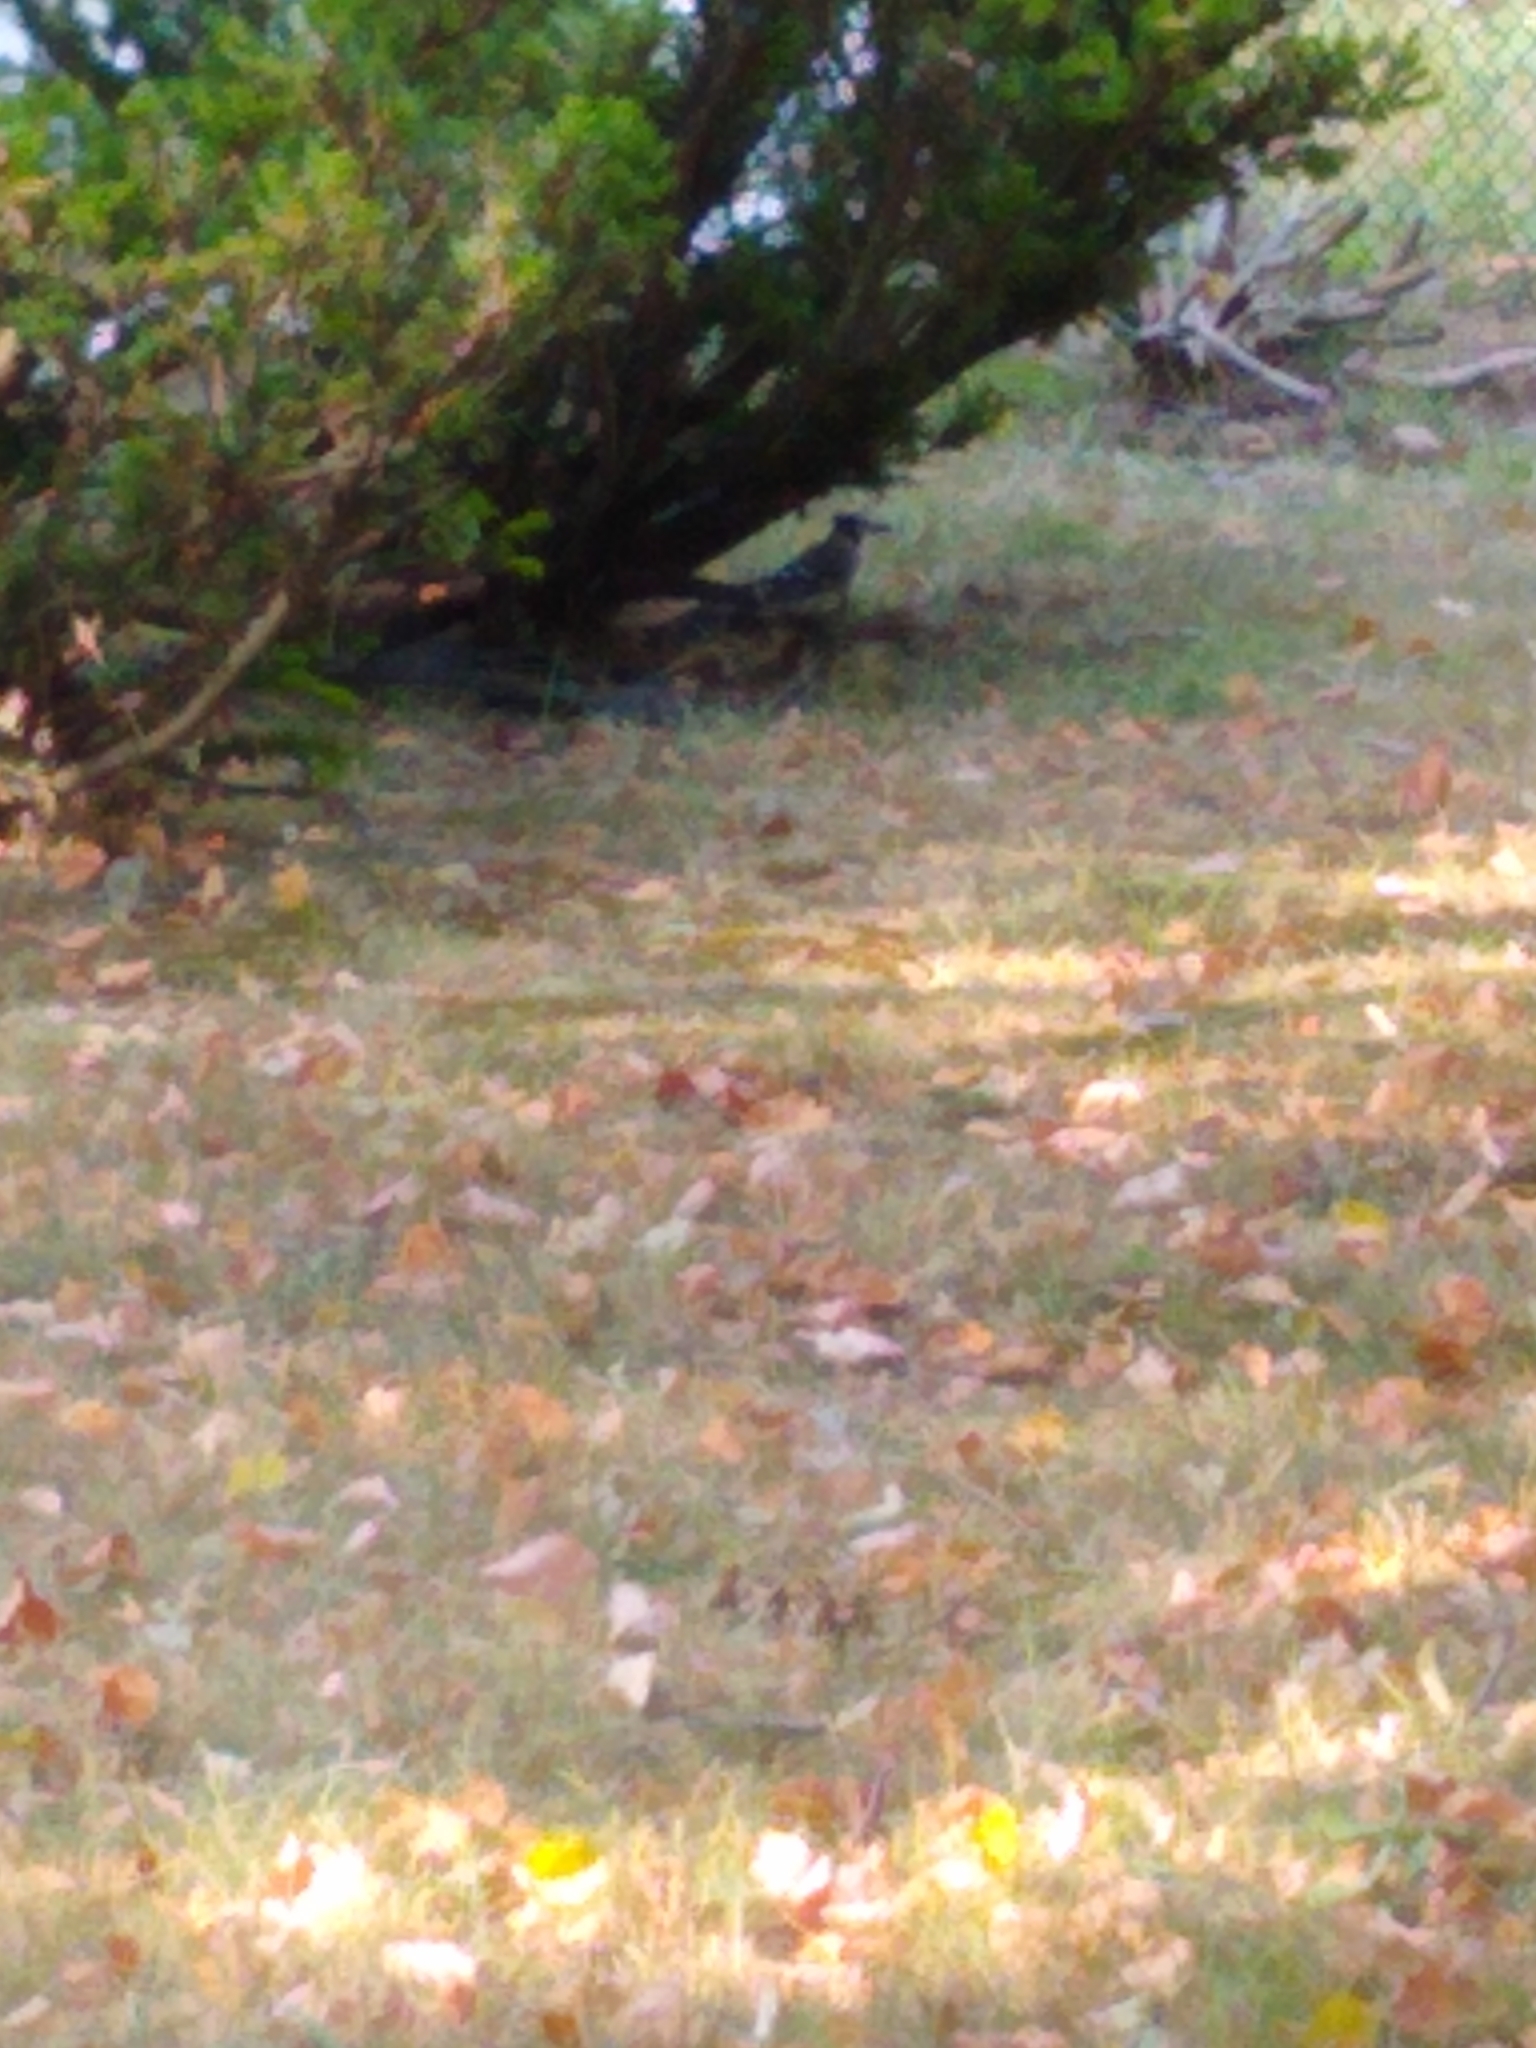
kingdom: Animalia
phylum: Chordata
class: Aves
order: Passeriformes
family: Corvidae
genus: Cyanocitta
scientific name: Cyanocitta cristata
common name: Blue jay
